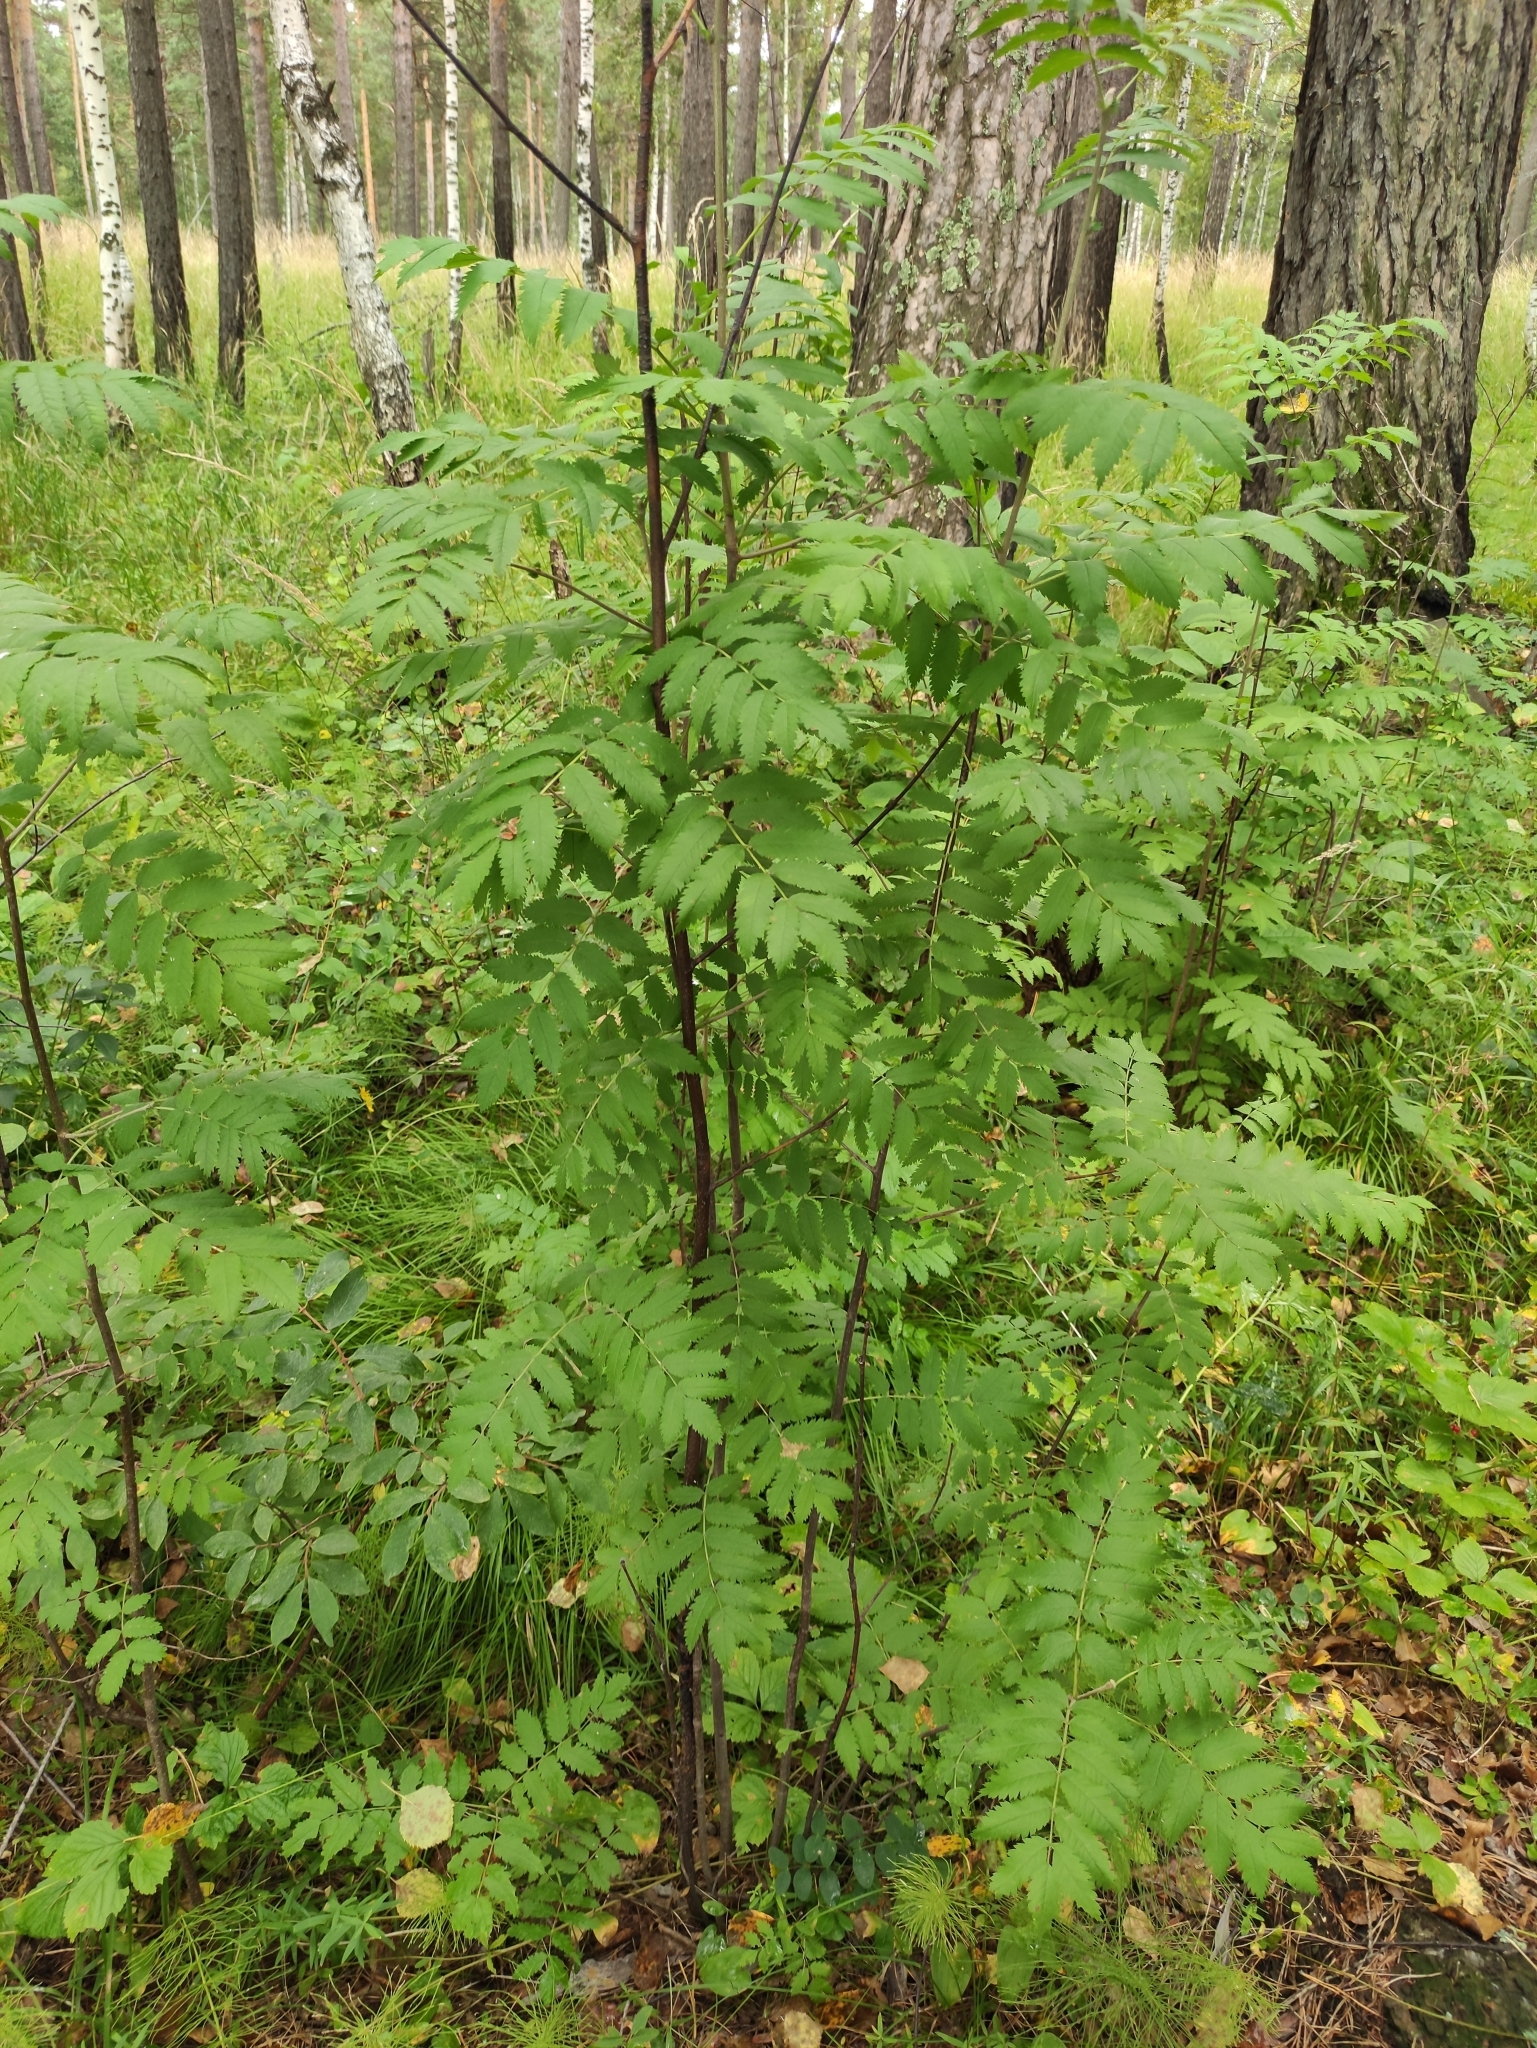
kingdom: Plantae
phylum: Tracheophyta
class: Magnoliopsida
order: Rosales
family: Rosaceae
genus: Sorbus
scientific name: Sorbus aucuparia
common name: Rowan
